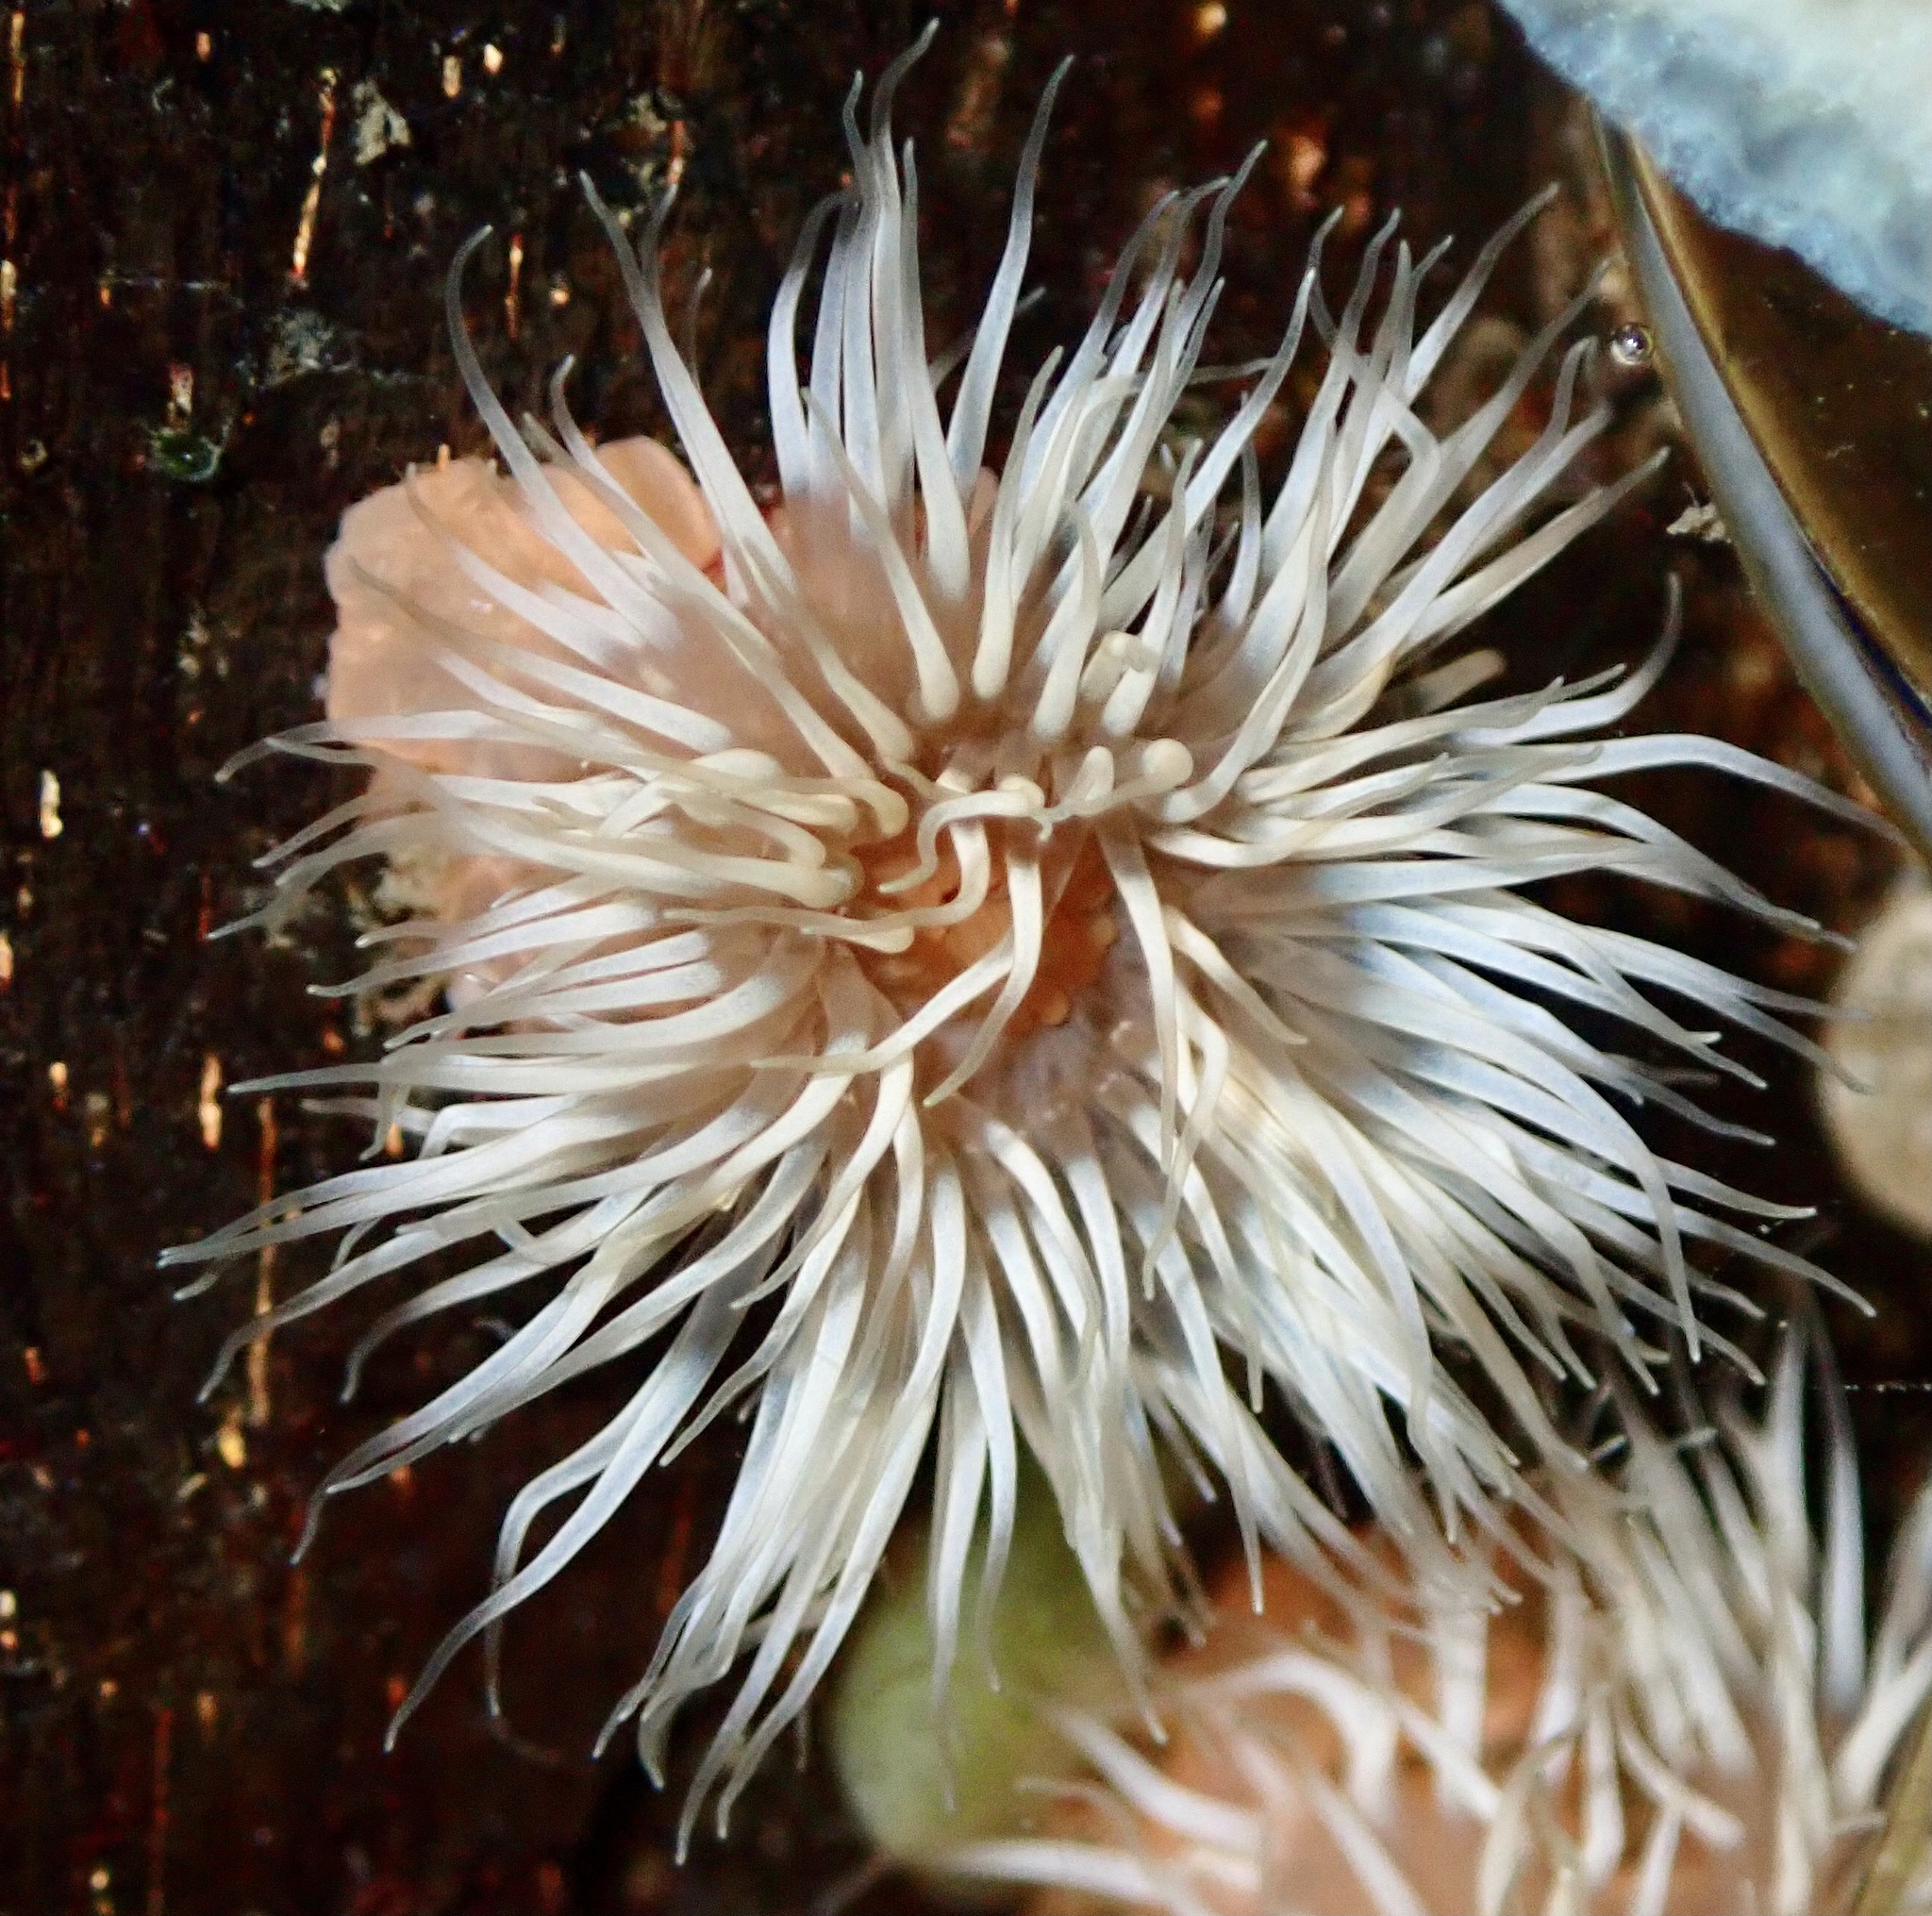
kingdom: Animalia
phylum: Cnidaria
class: Anthozoa
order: Actiniaria
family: Metridiidae
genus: Metridium
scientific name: Metridium senile
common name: Clonal plumose anemone
